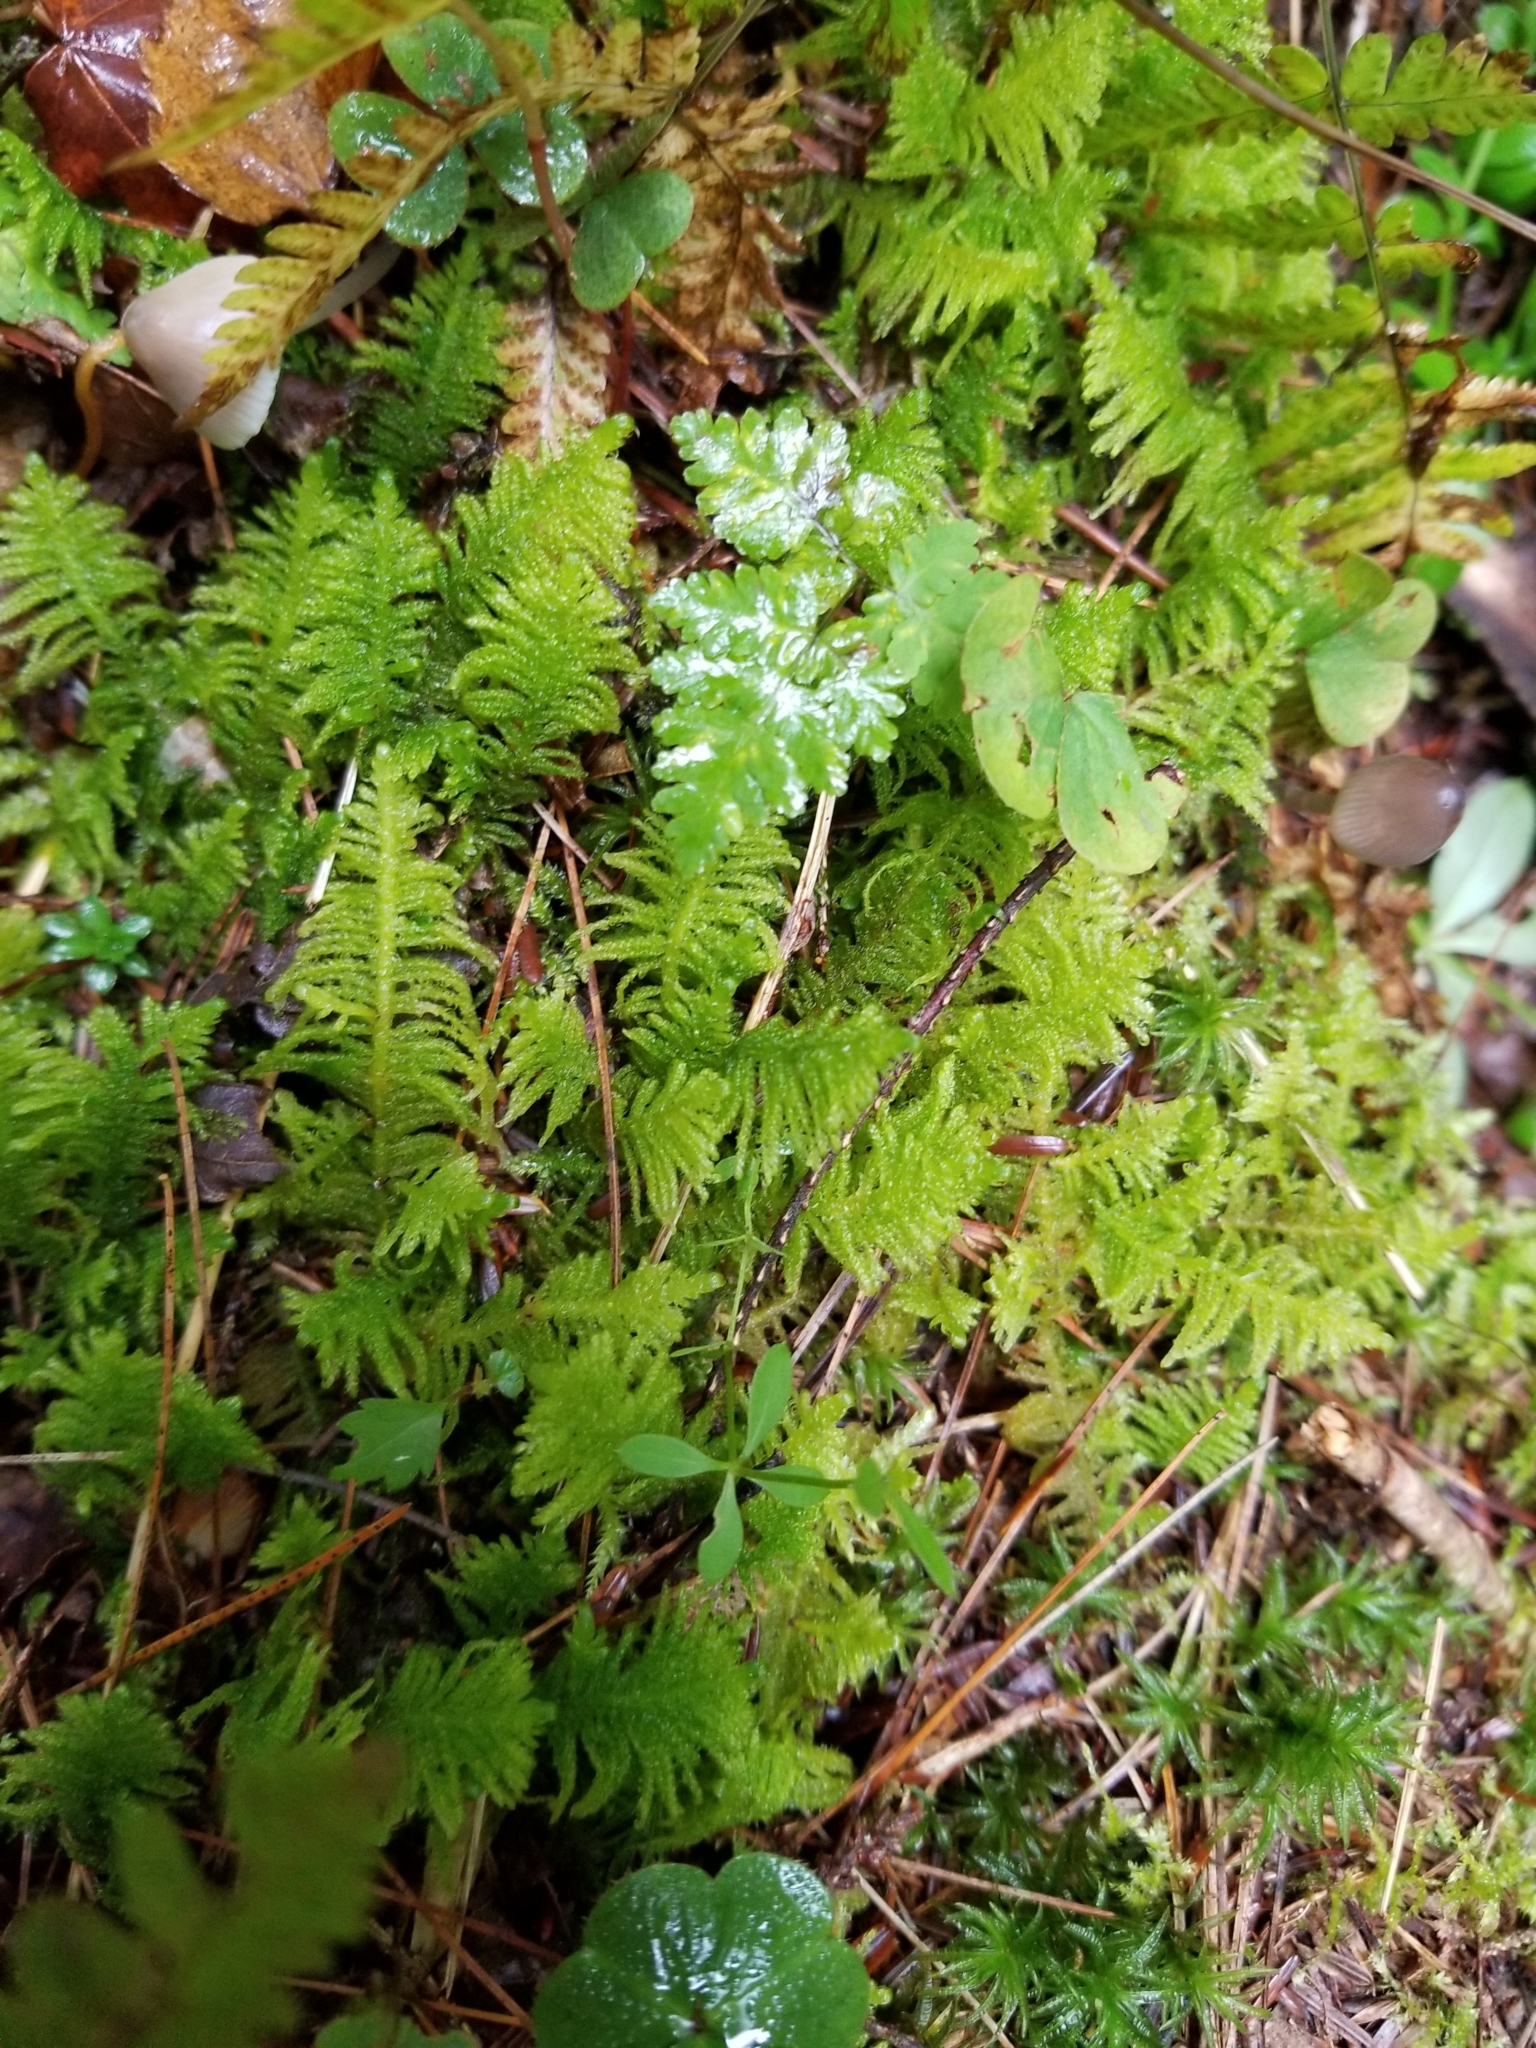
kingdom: Plantae
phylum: Bryophyta
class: Bryopsida
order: Hypnales
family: Pylaisiaceae
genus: Ptilium
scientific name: Ptilium crista-castrensis
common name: Knight's plume moss
